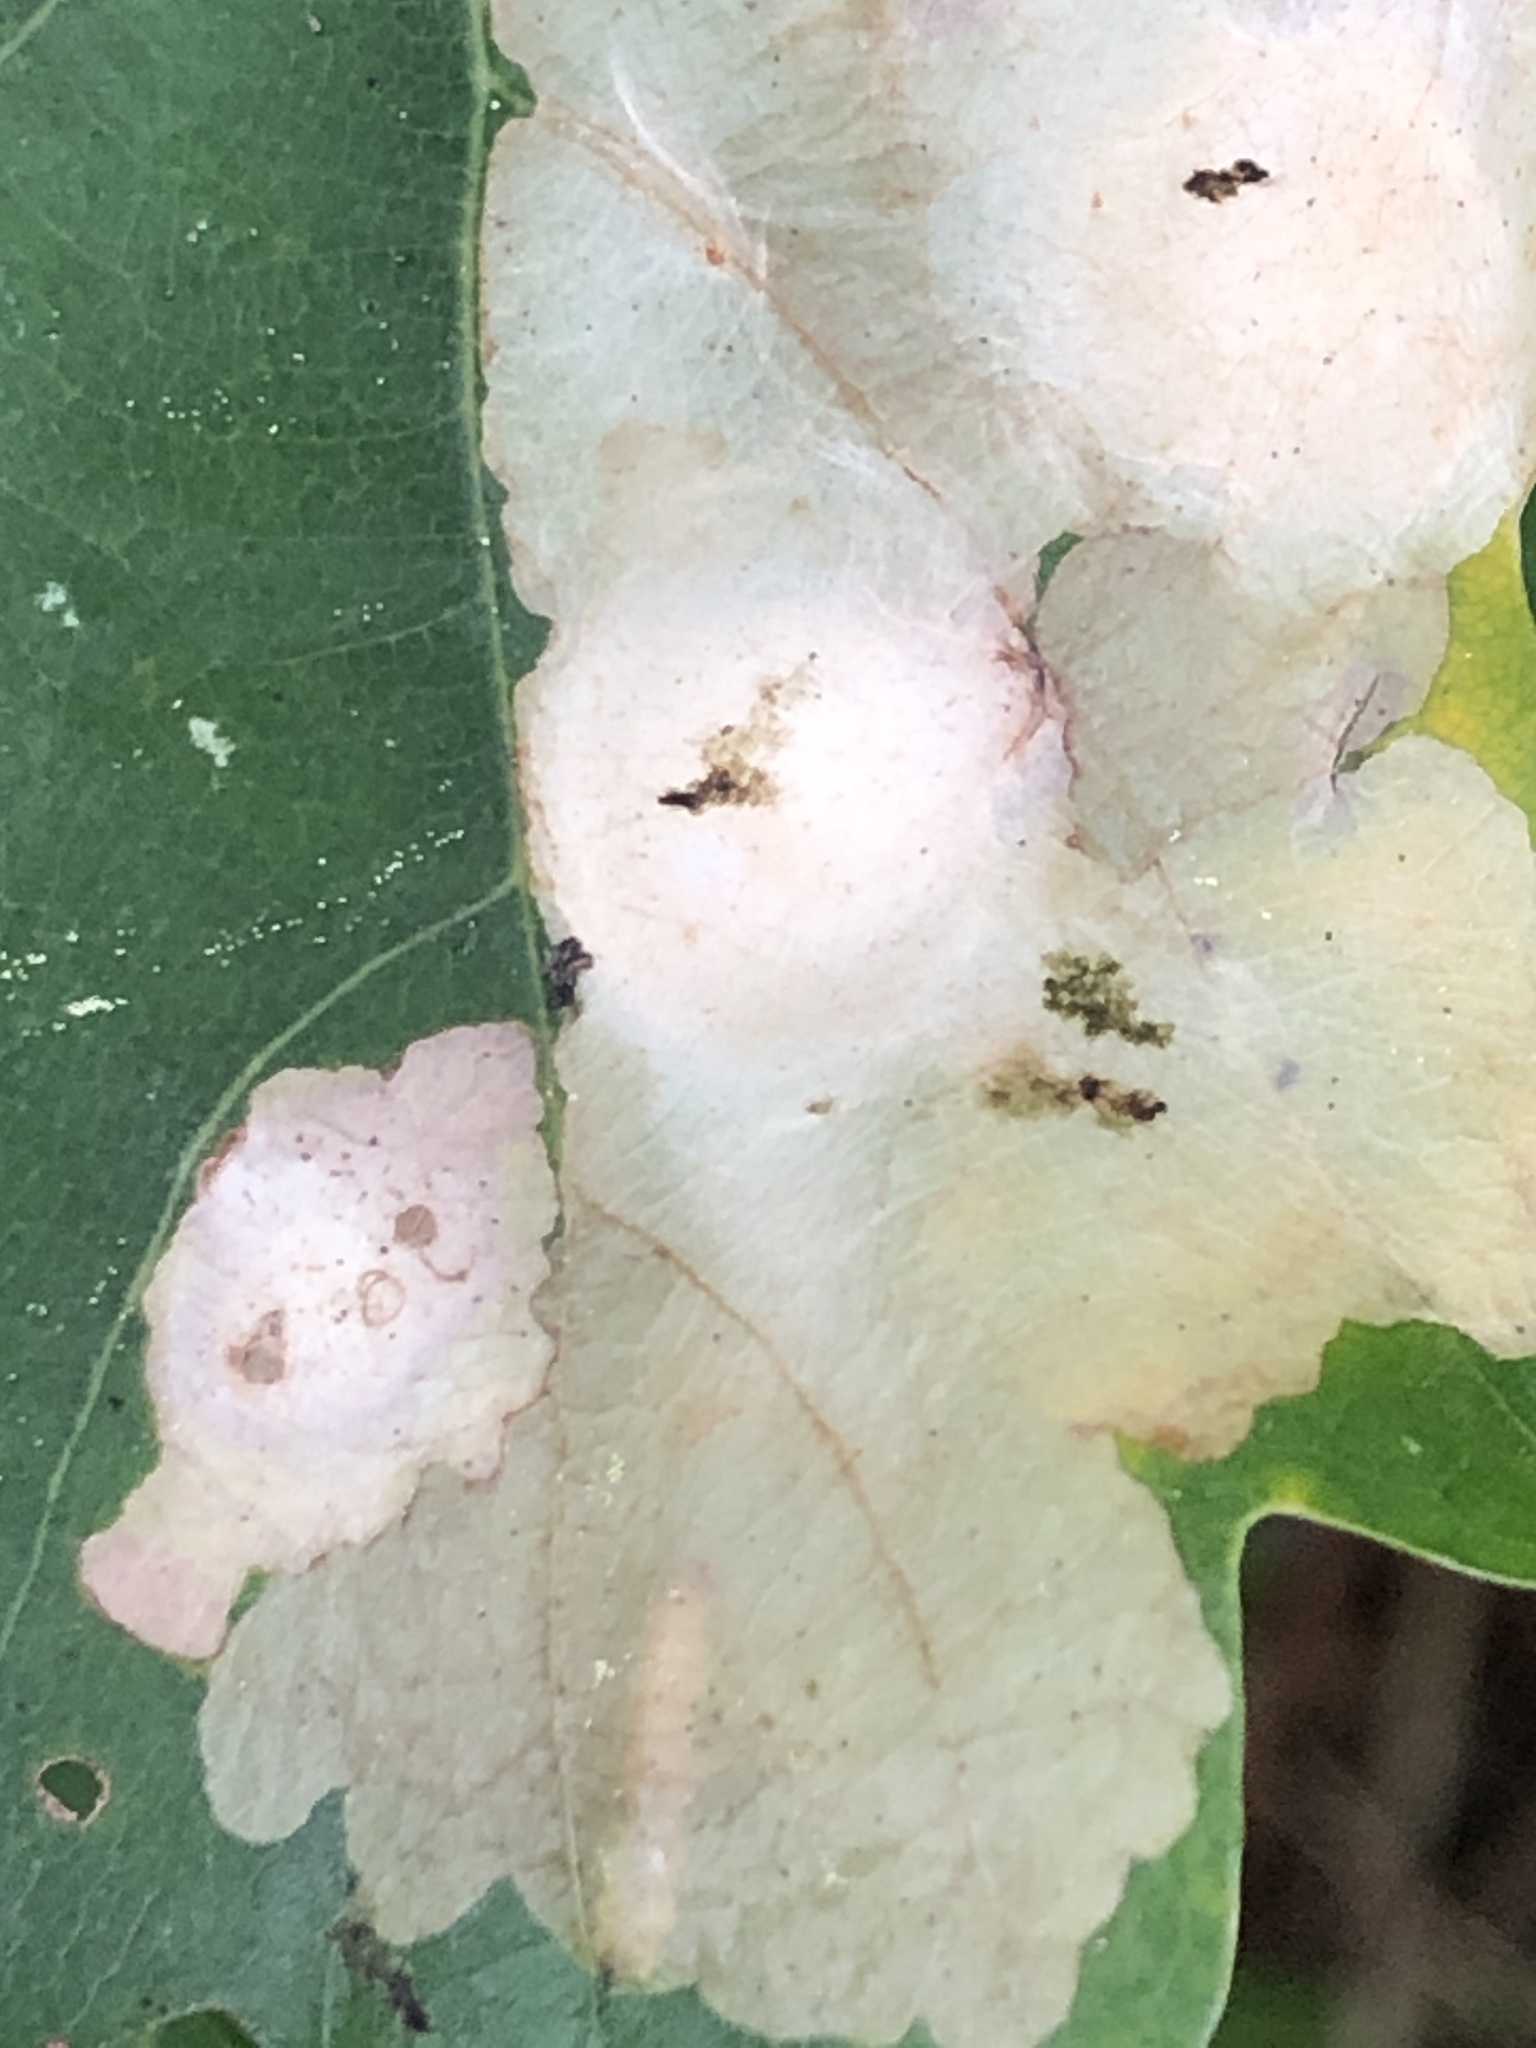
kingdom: Animalia
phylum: Arthropoda
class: Insecta
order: Lepidoptera
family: Tischeriidae
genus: Tischeria
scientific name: Tischeria ekebladella
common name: Oak carl
